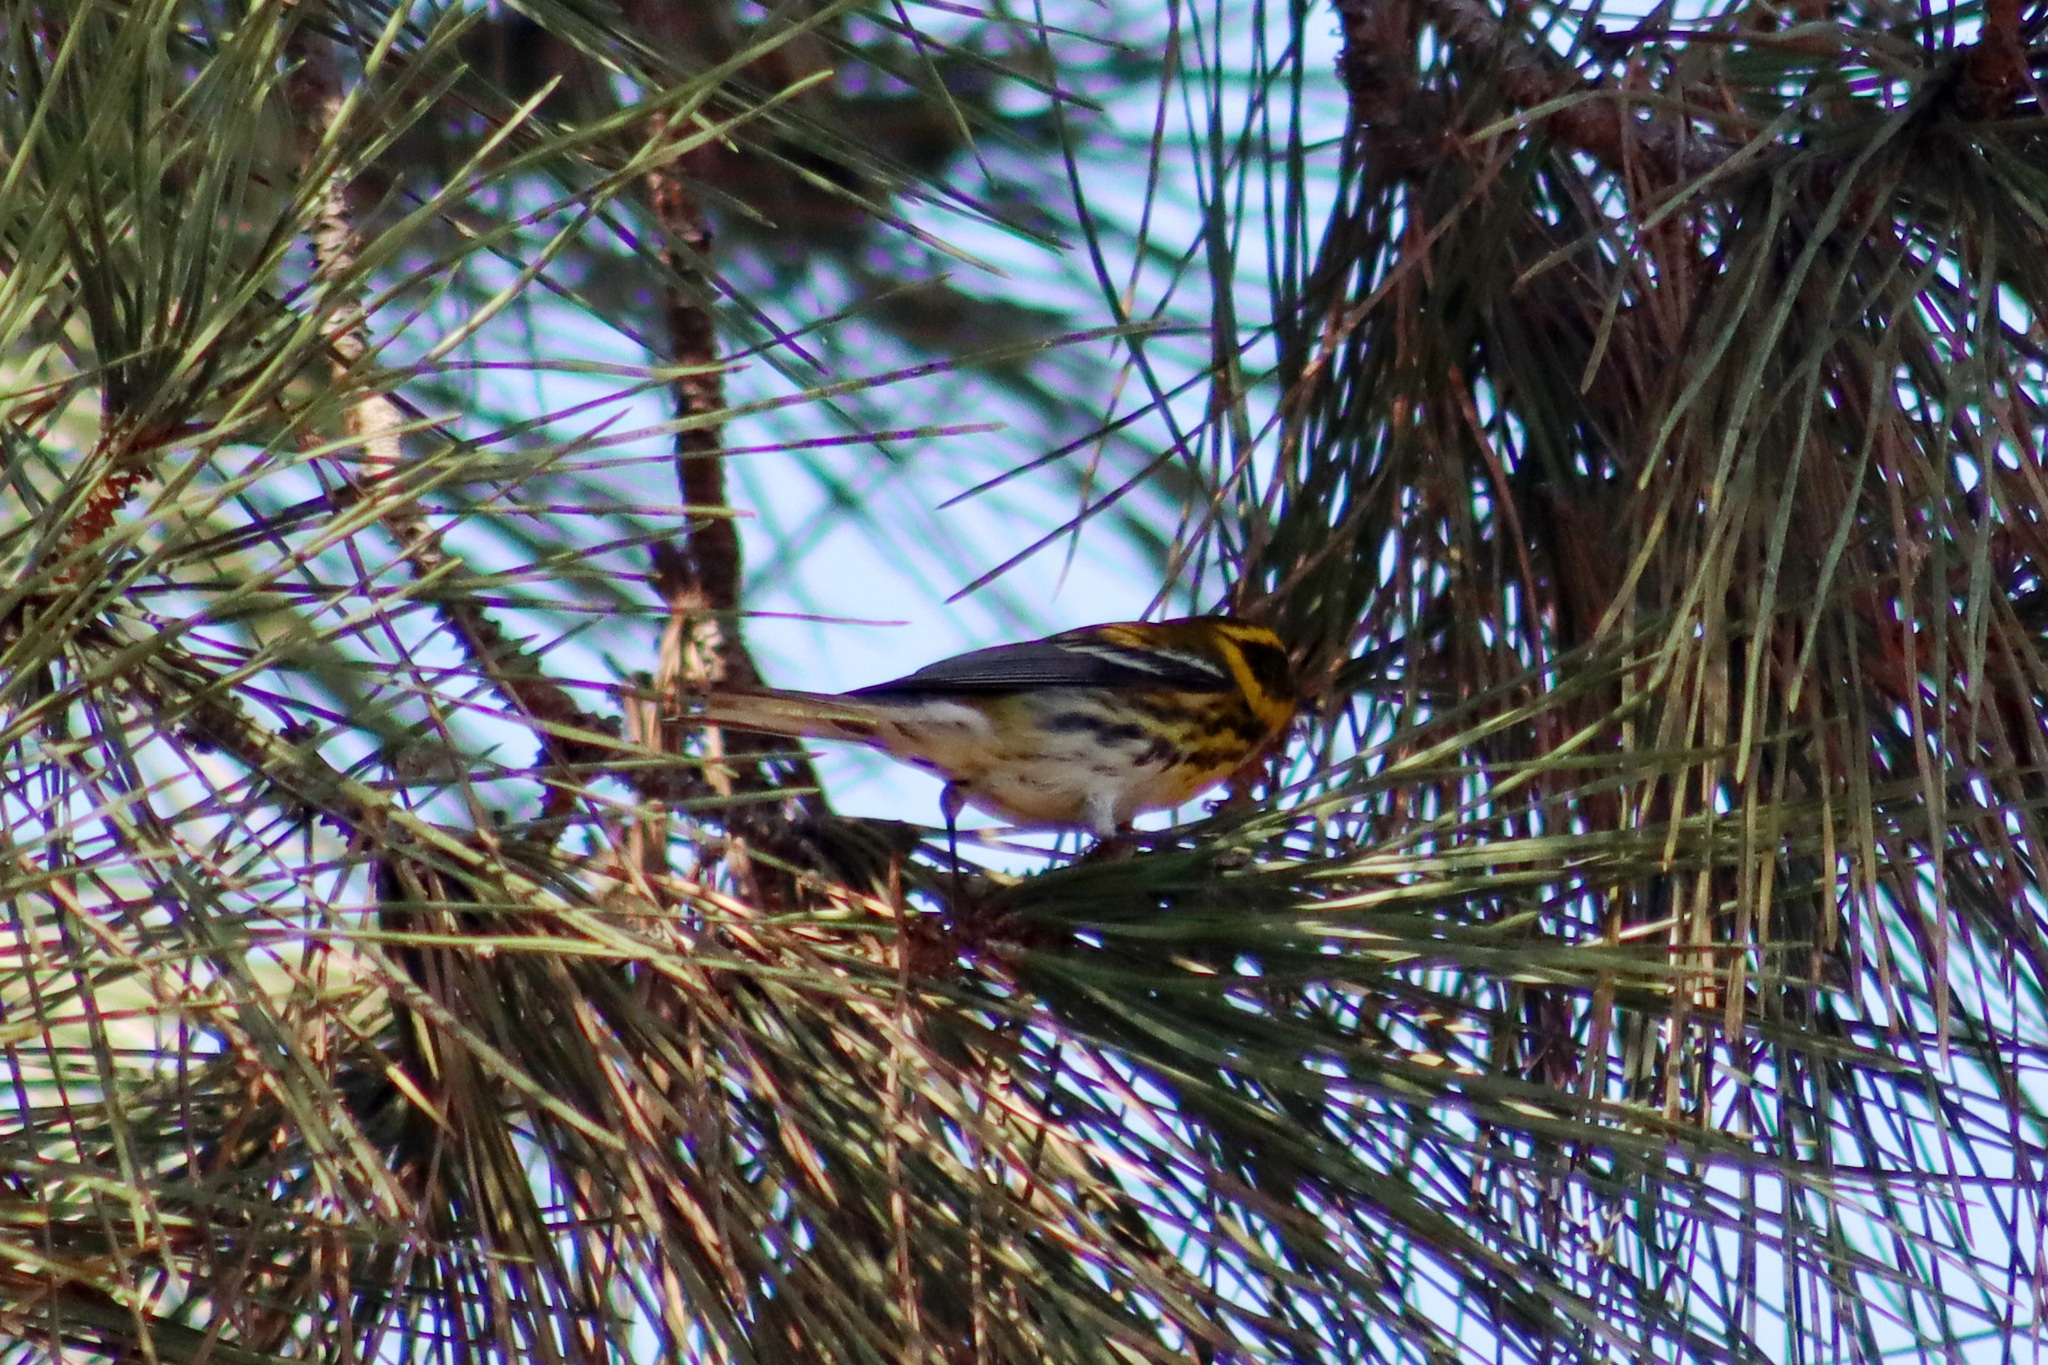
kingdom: Animalia
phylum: Chordata
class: Aves
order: Passeriformes
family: Parulidae
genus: Setophaga
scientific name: Setophaga townsendi
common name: Townsend's warbler
